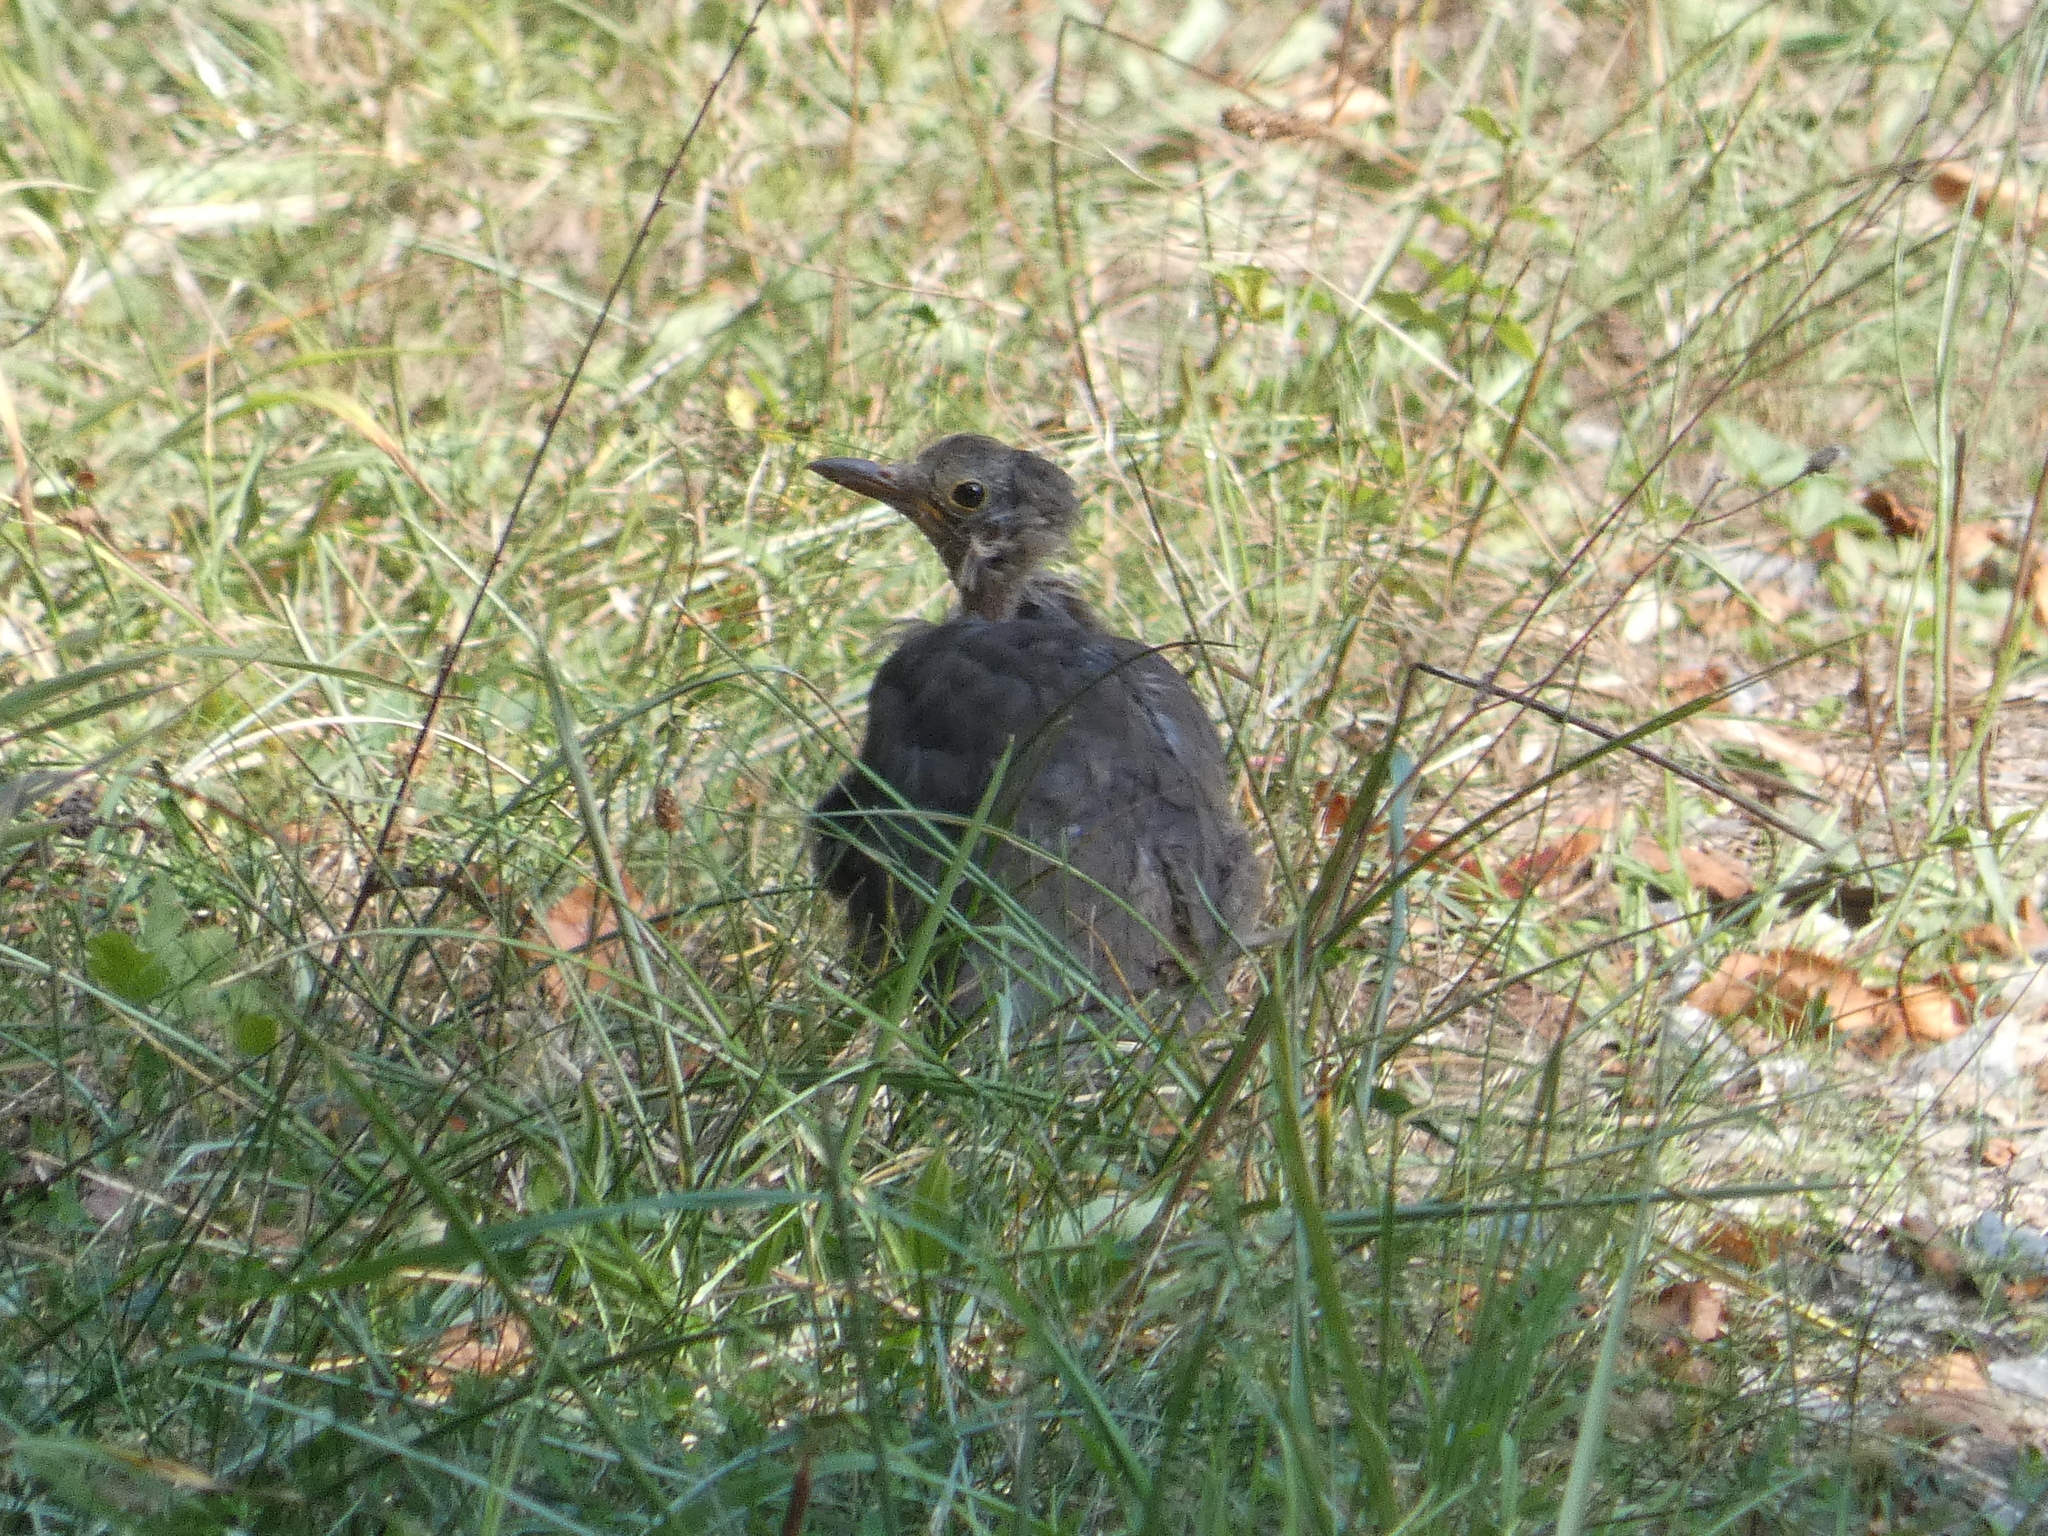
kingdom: Animalia
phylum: Chordata
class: Aves
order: Passeriformes
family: Turdidae
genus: Turdus
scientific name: Turdus merula
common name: Common blackbird
